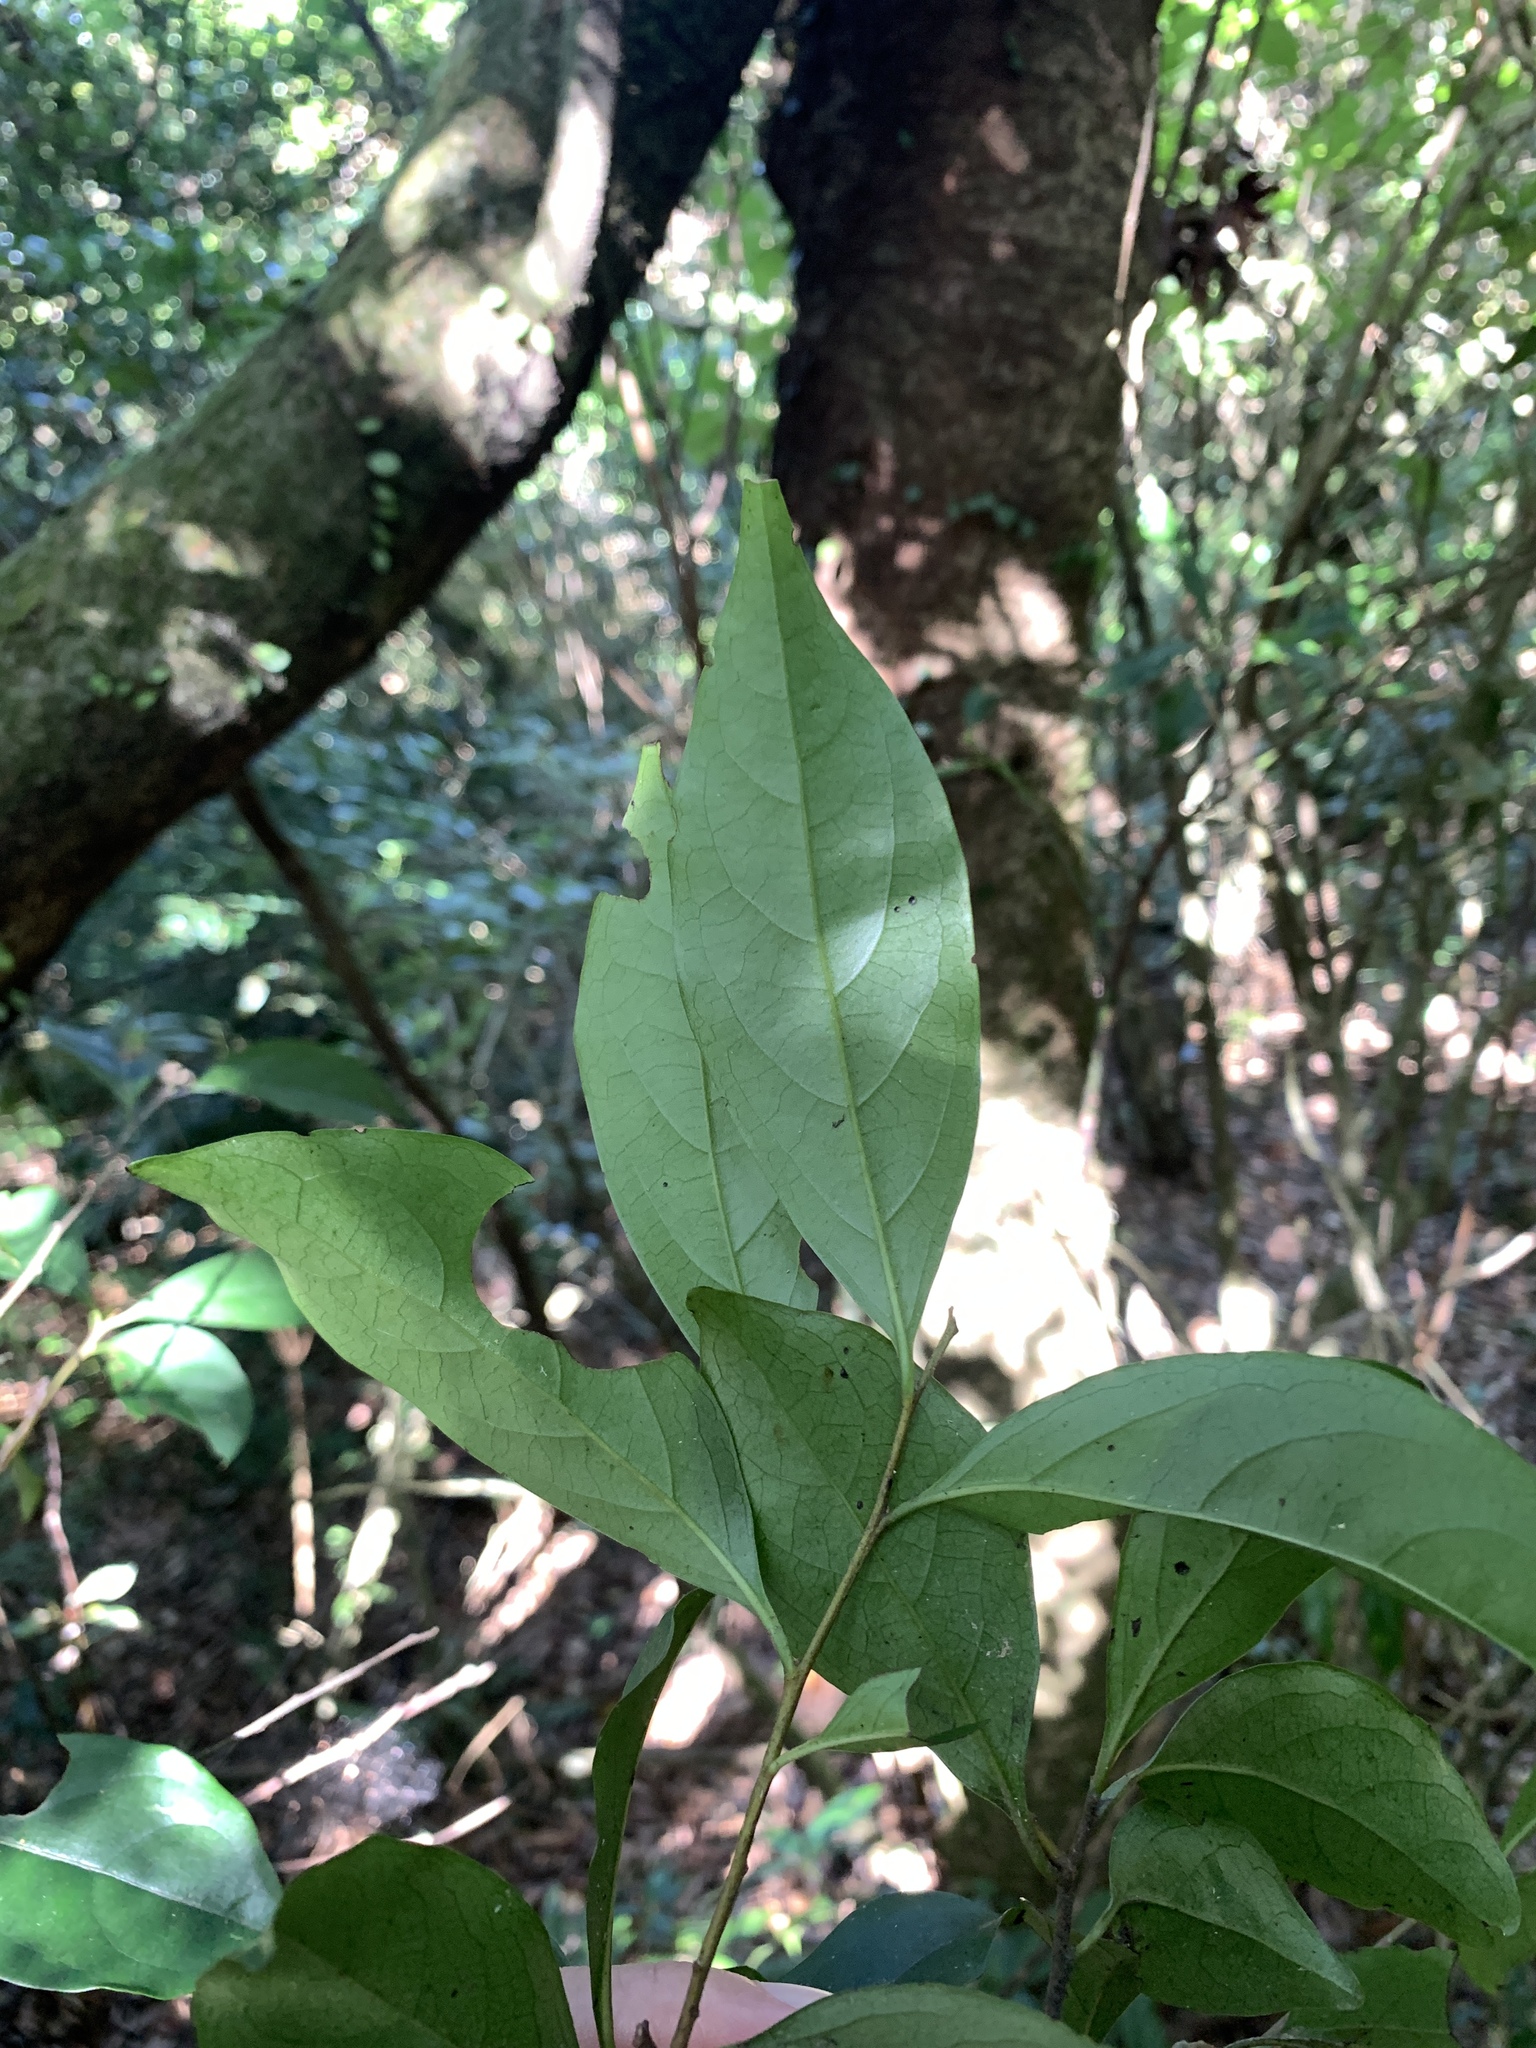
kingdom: Plantae
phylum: Tracheophyta
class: Magnoliopsida
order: Ericales
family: Ebenaceae
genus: Diospyros
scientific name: Diospyros morrisiana
